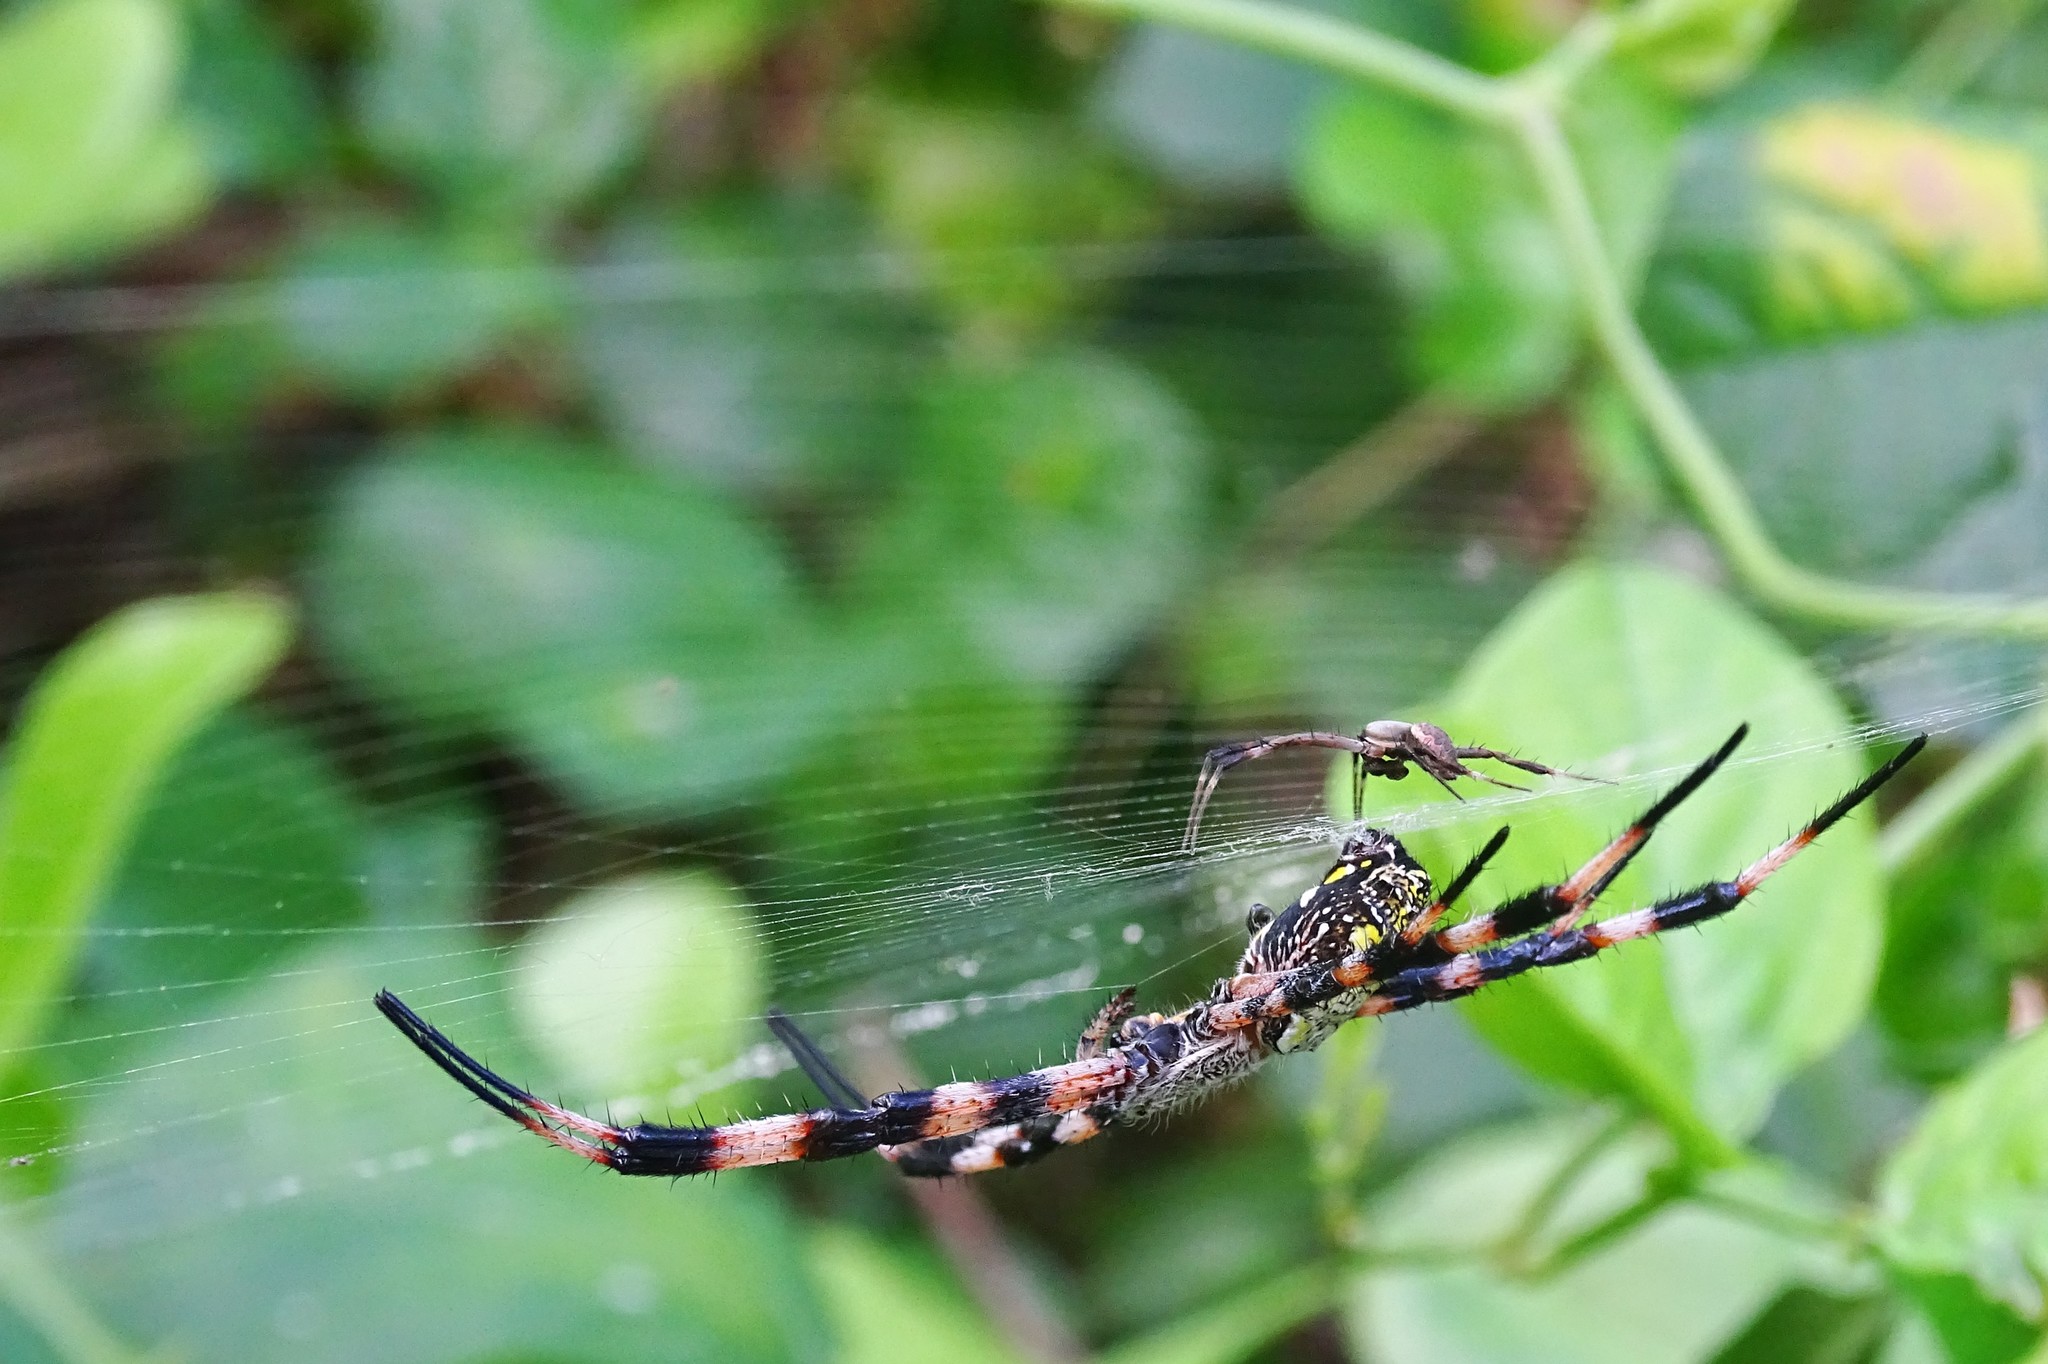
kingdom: Animalia
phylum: Arthropoda
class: Arachnida
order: Araneae
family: Araneidae
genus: Argiope
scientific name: Argiope appensa
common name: Garden spider
